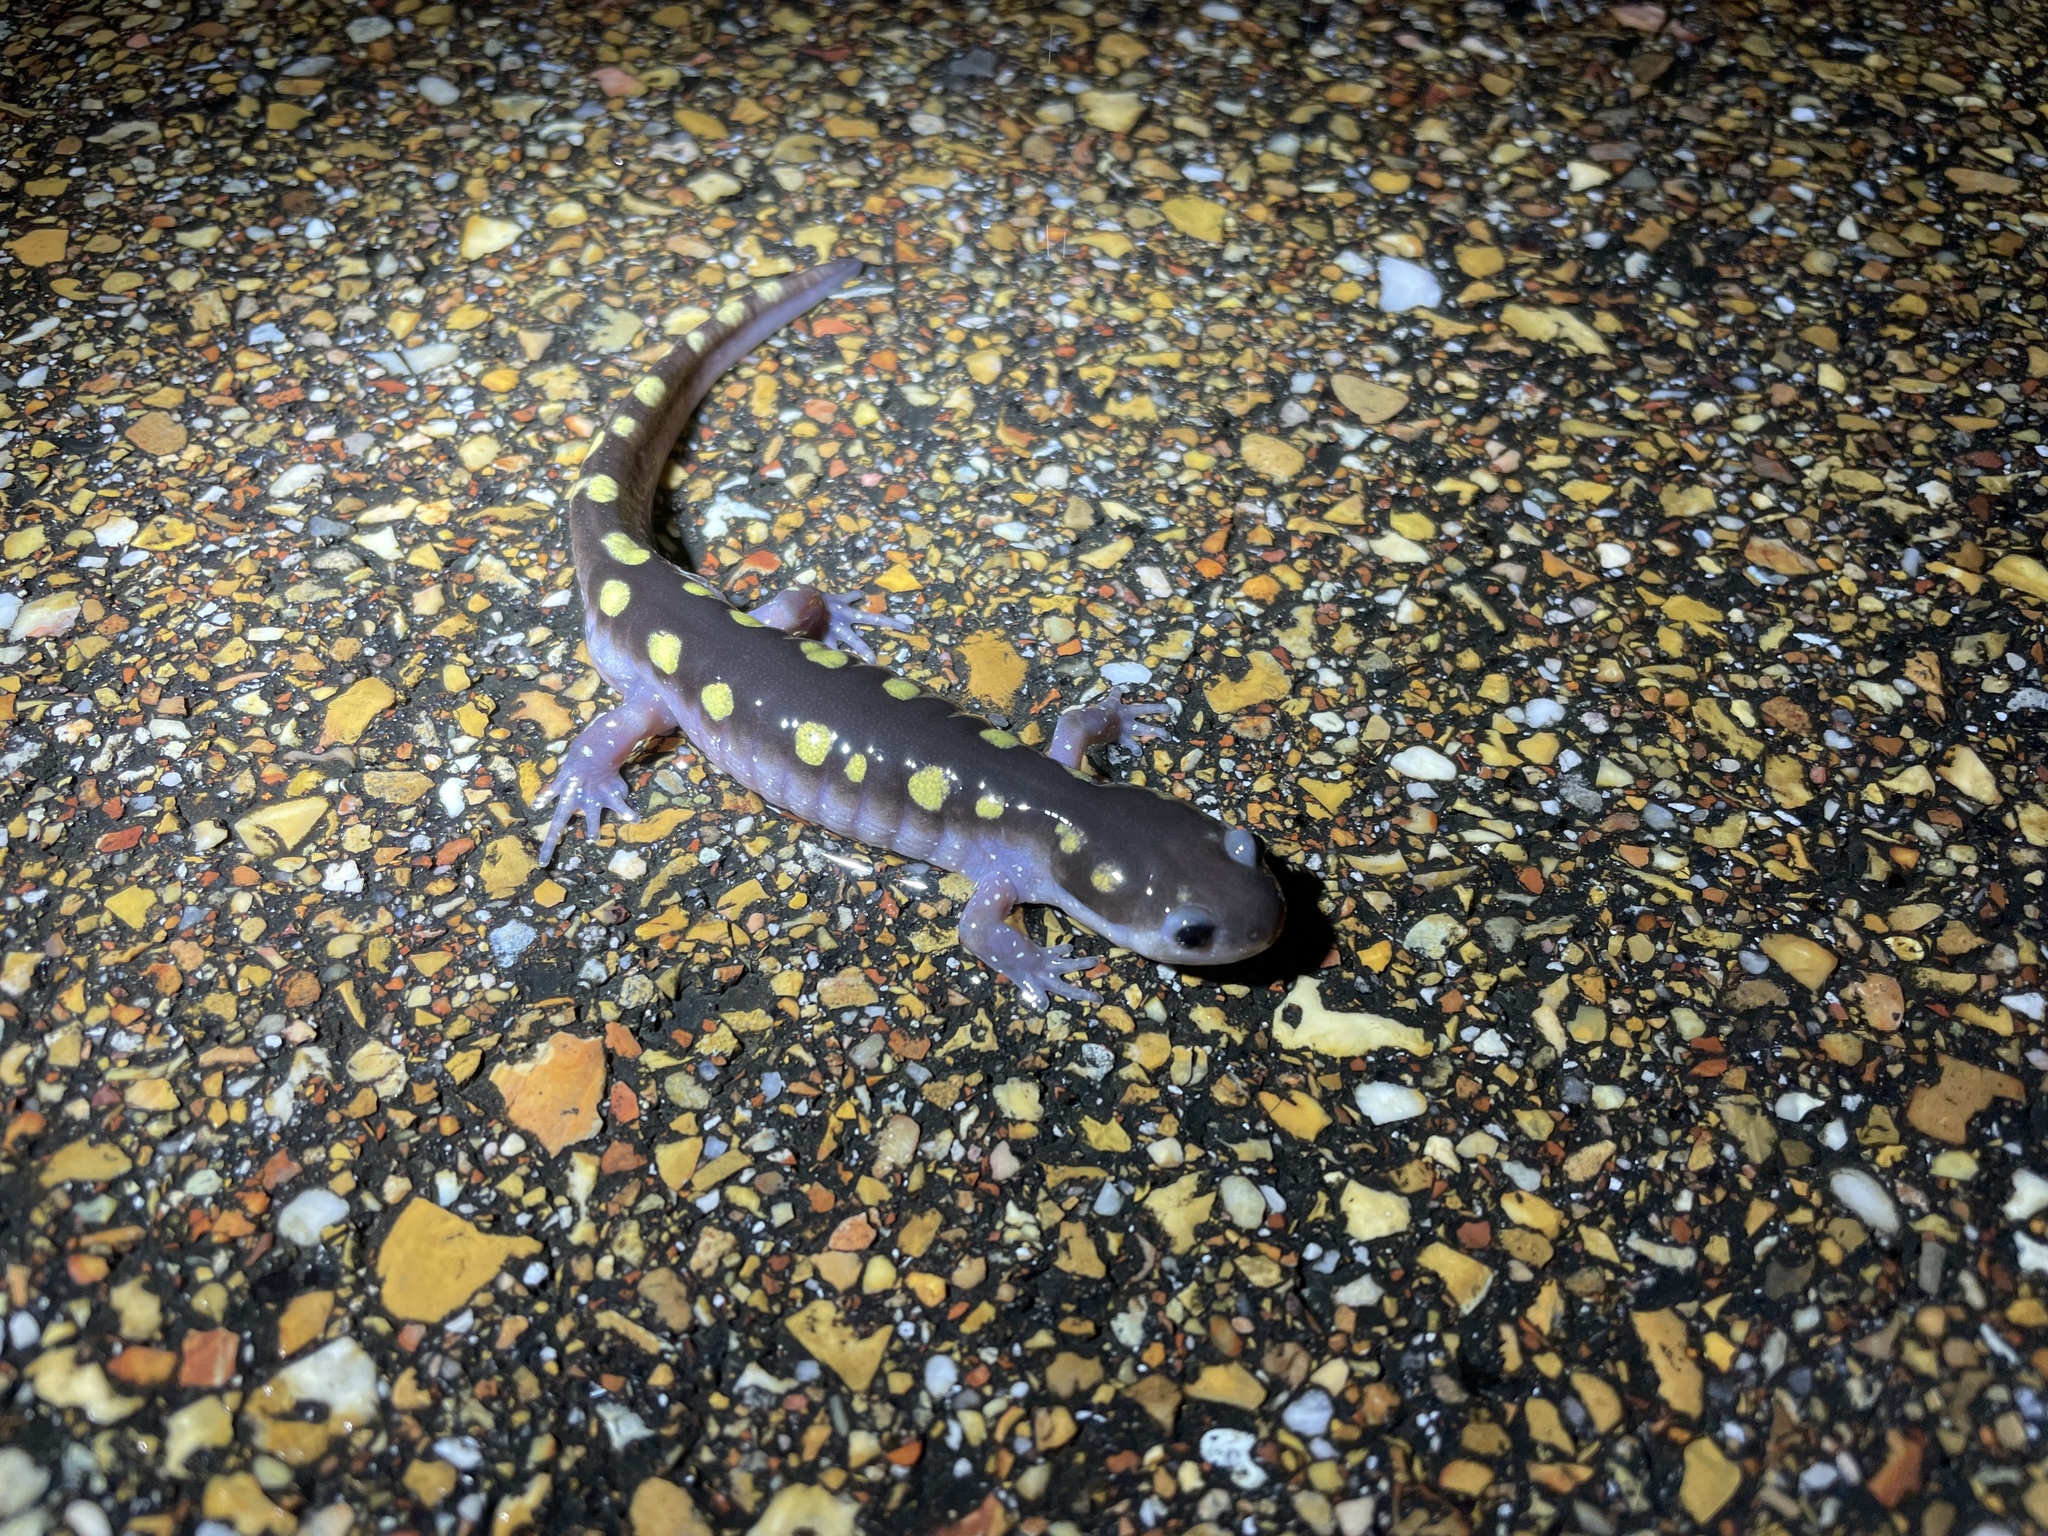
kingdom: Animalia
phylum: Chordata
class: Amphibia
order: Caudata
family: Ambystomatidae
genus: Ambystoma
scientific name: Ambystoma maculatum
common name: Spotted salamander
